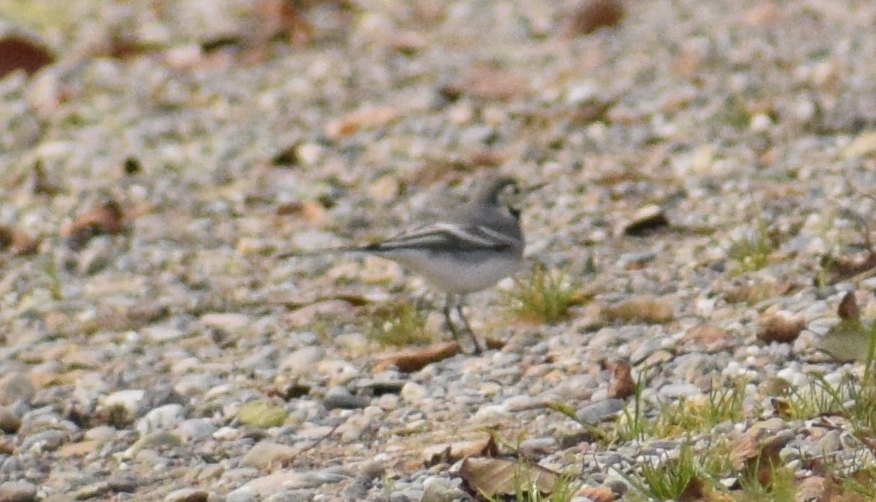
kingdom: Animalia
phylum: Chordata
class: Aves
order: Passeriformes
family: Motacillidae
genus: Motacilla
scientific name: Motacilla alba
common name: White wagtail
